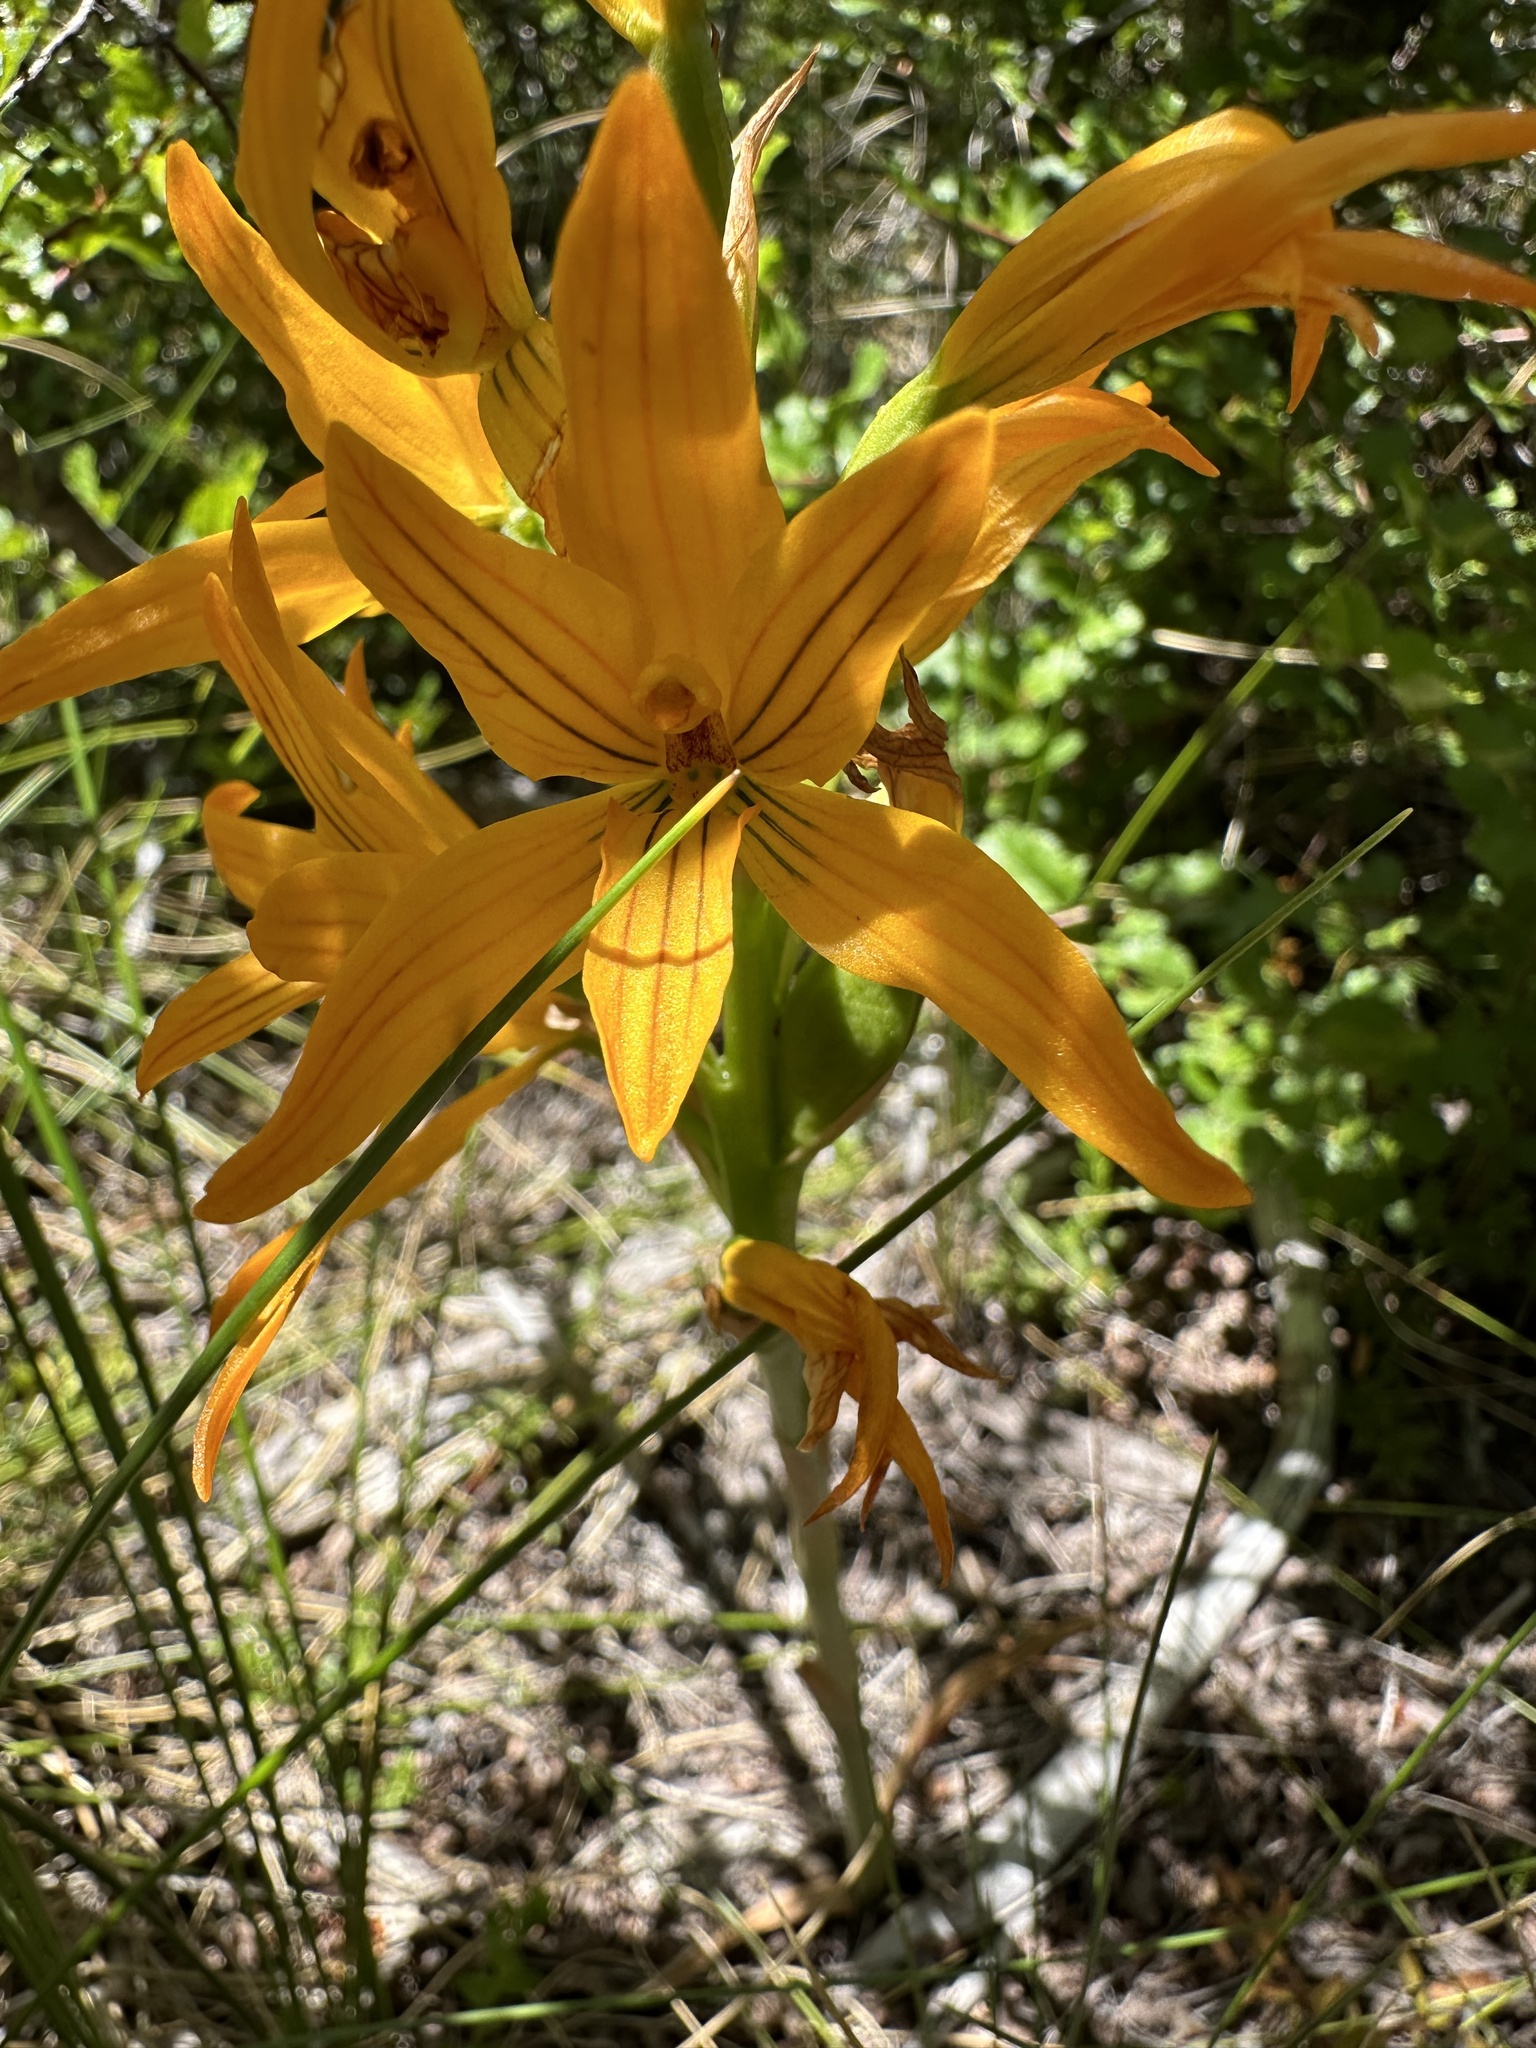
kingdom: Plantae
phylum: Tracheophyta
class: Liliopsida
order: Asparagales
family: Orchidaceae
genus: Chloraea
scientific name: Chloraea nudilabia
